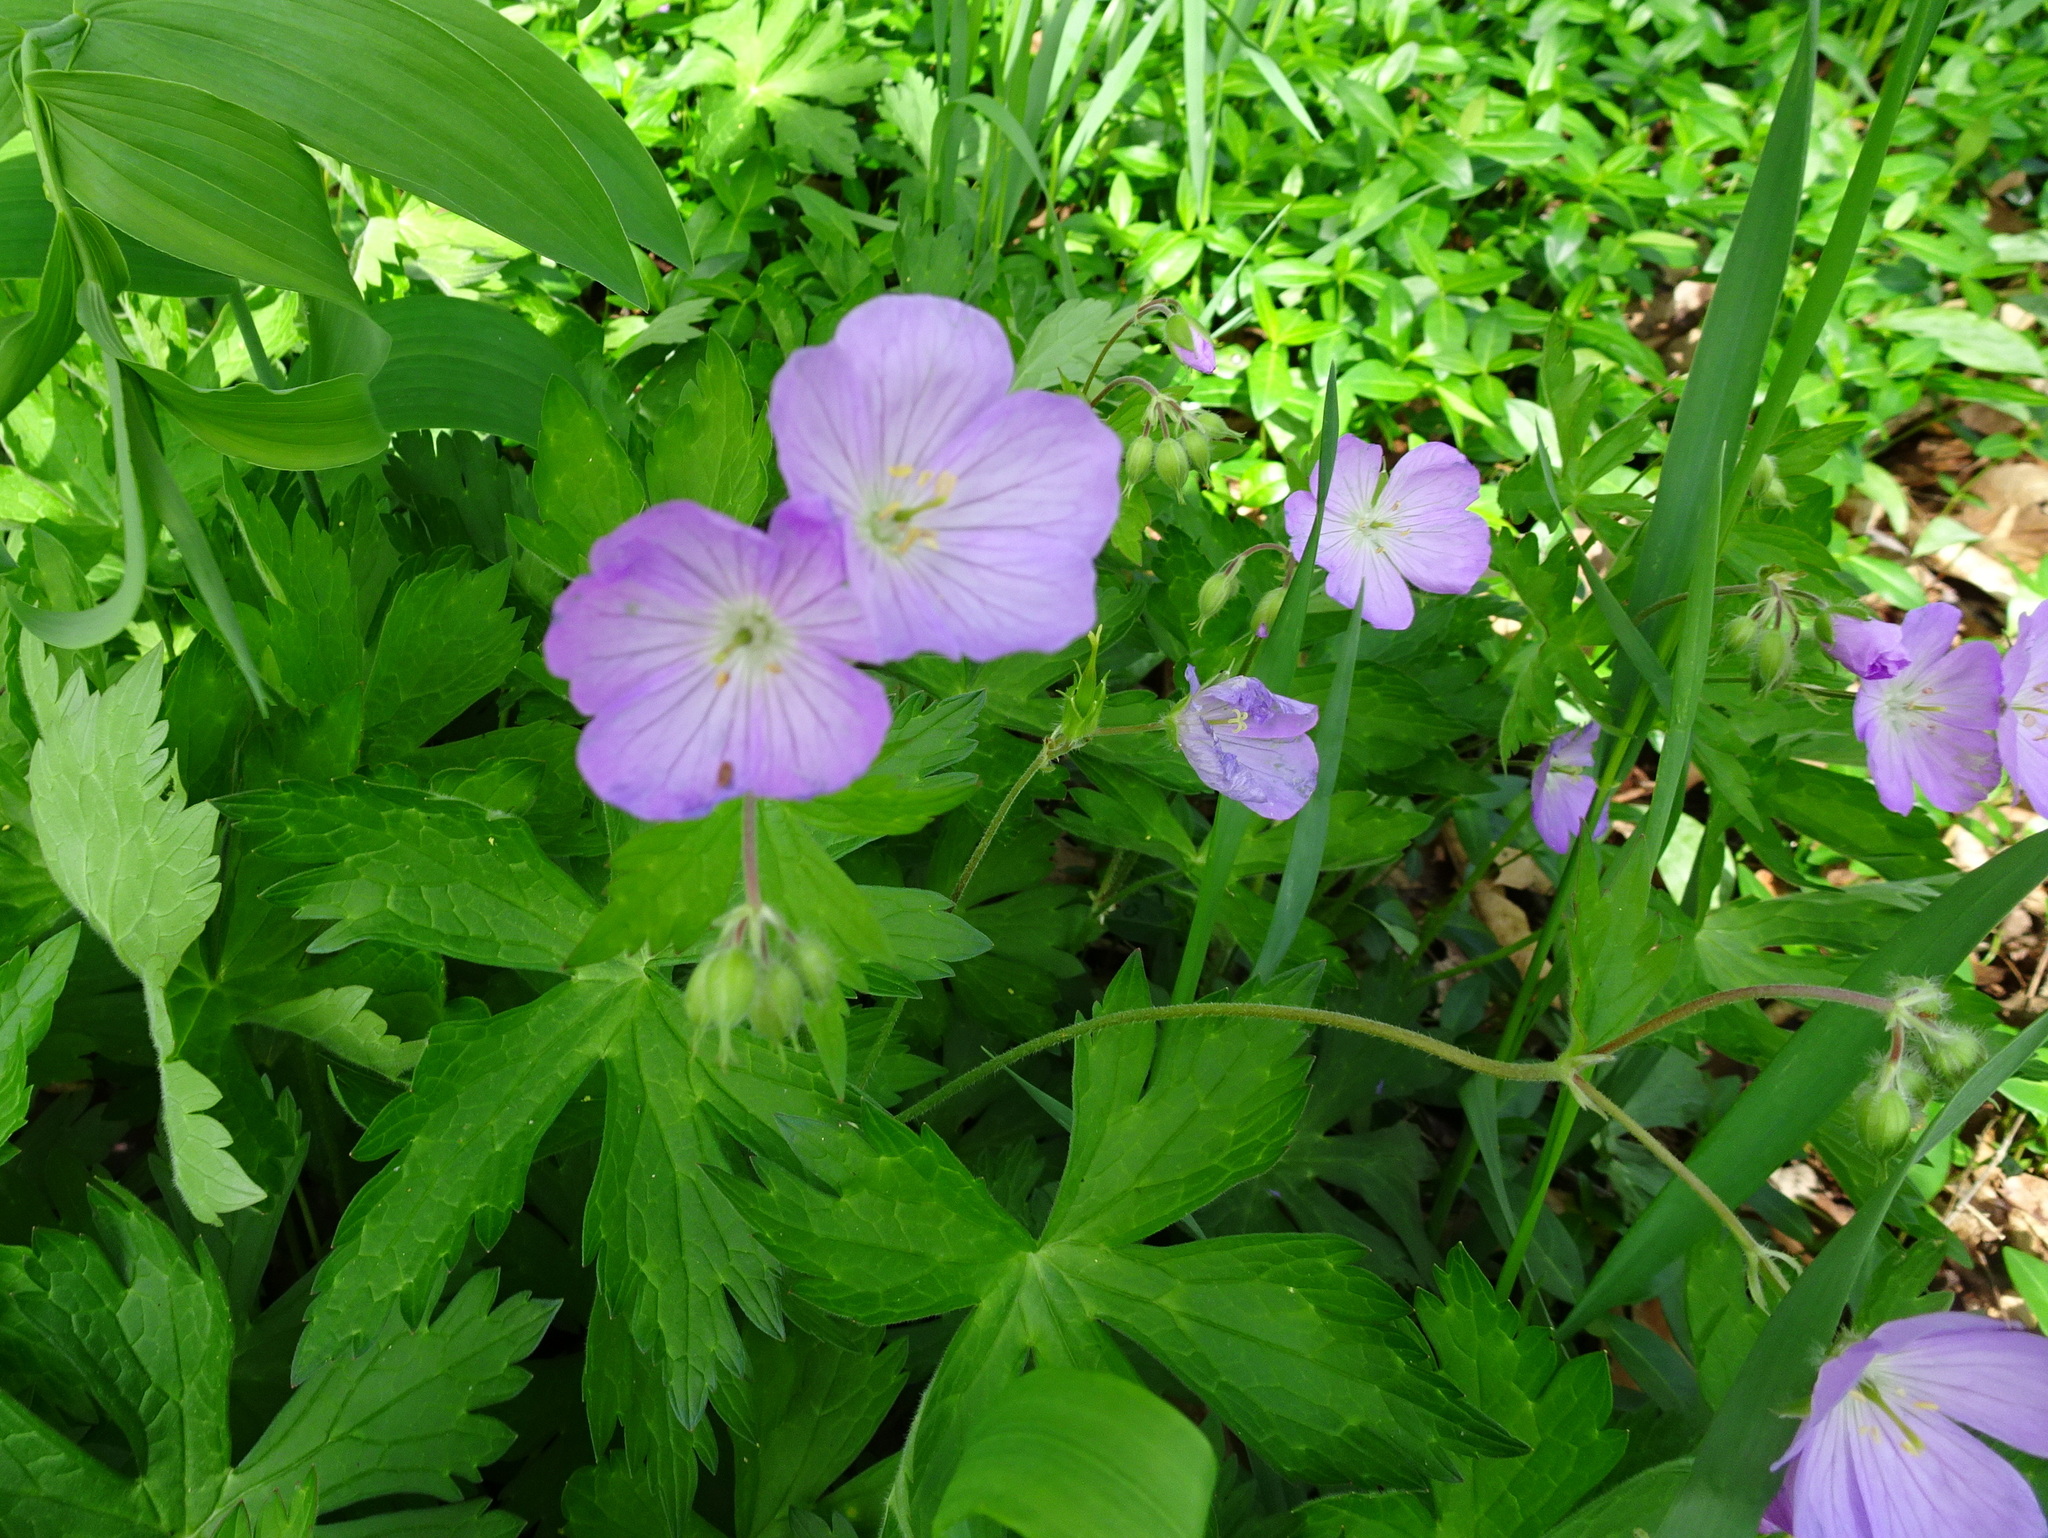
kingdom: Plantae
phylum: Tracheophyta
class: Magnoliopsida
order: Geraniales
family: Geraniaceae
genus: Geranium
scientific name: Geranium maculatum
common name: Spotted geranium
